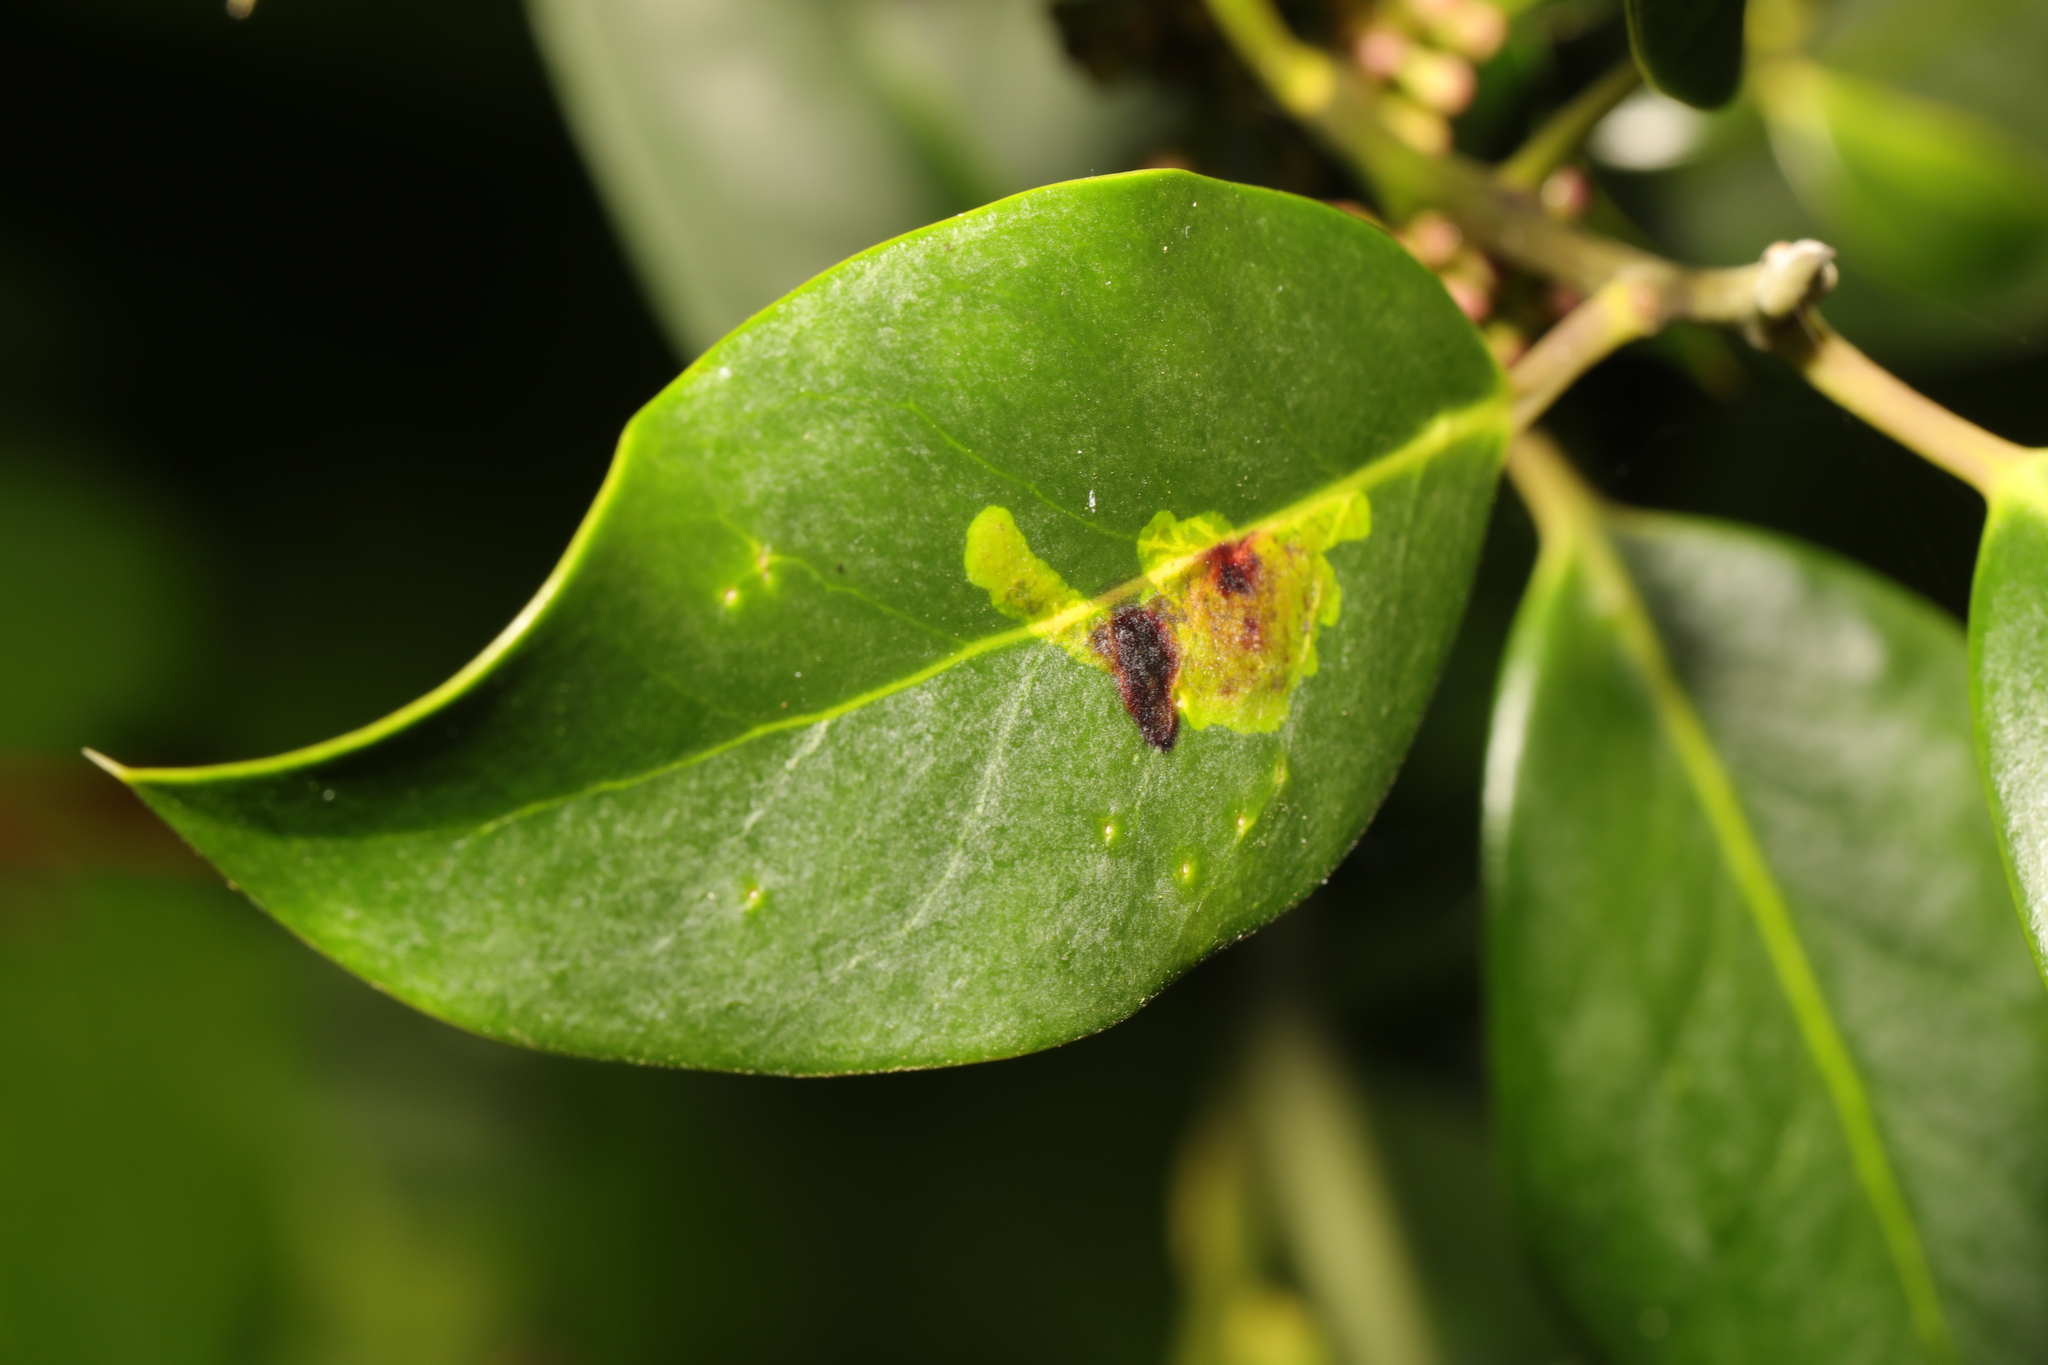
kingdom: Animalia
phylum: Arthropoda
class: Insecta
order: Diptera
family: Agromyzidae
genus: Phytomyza
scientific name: Phytomyza ilicis
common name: Holly leafminer
